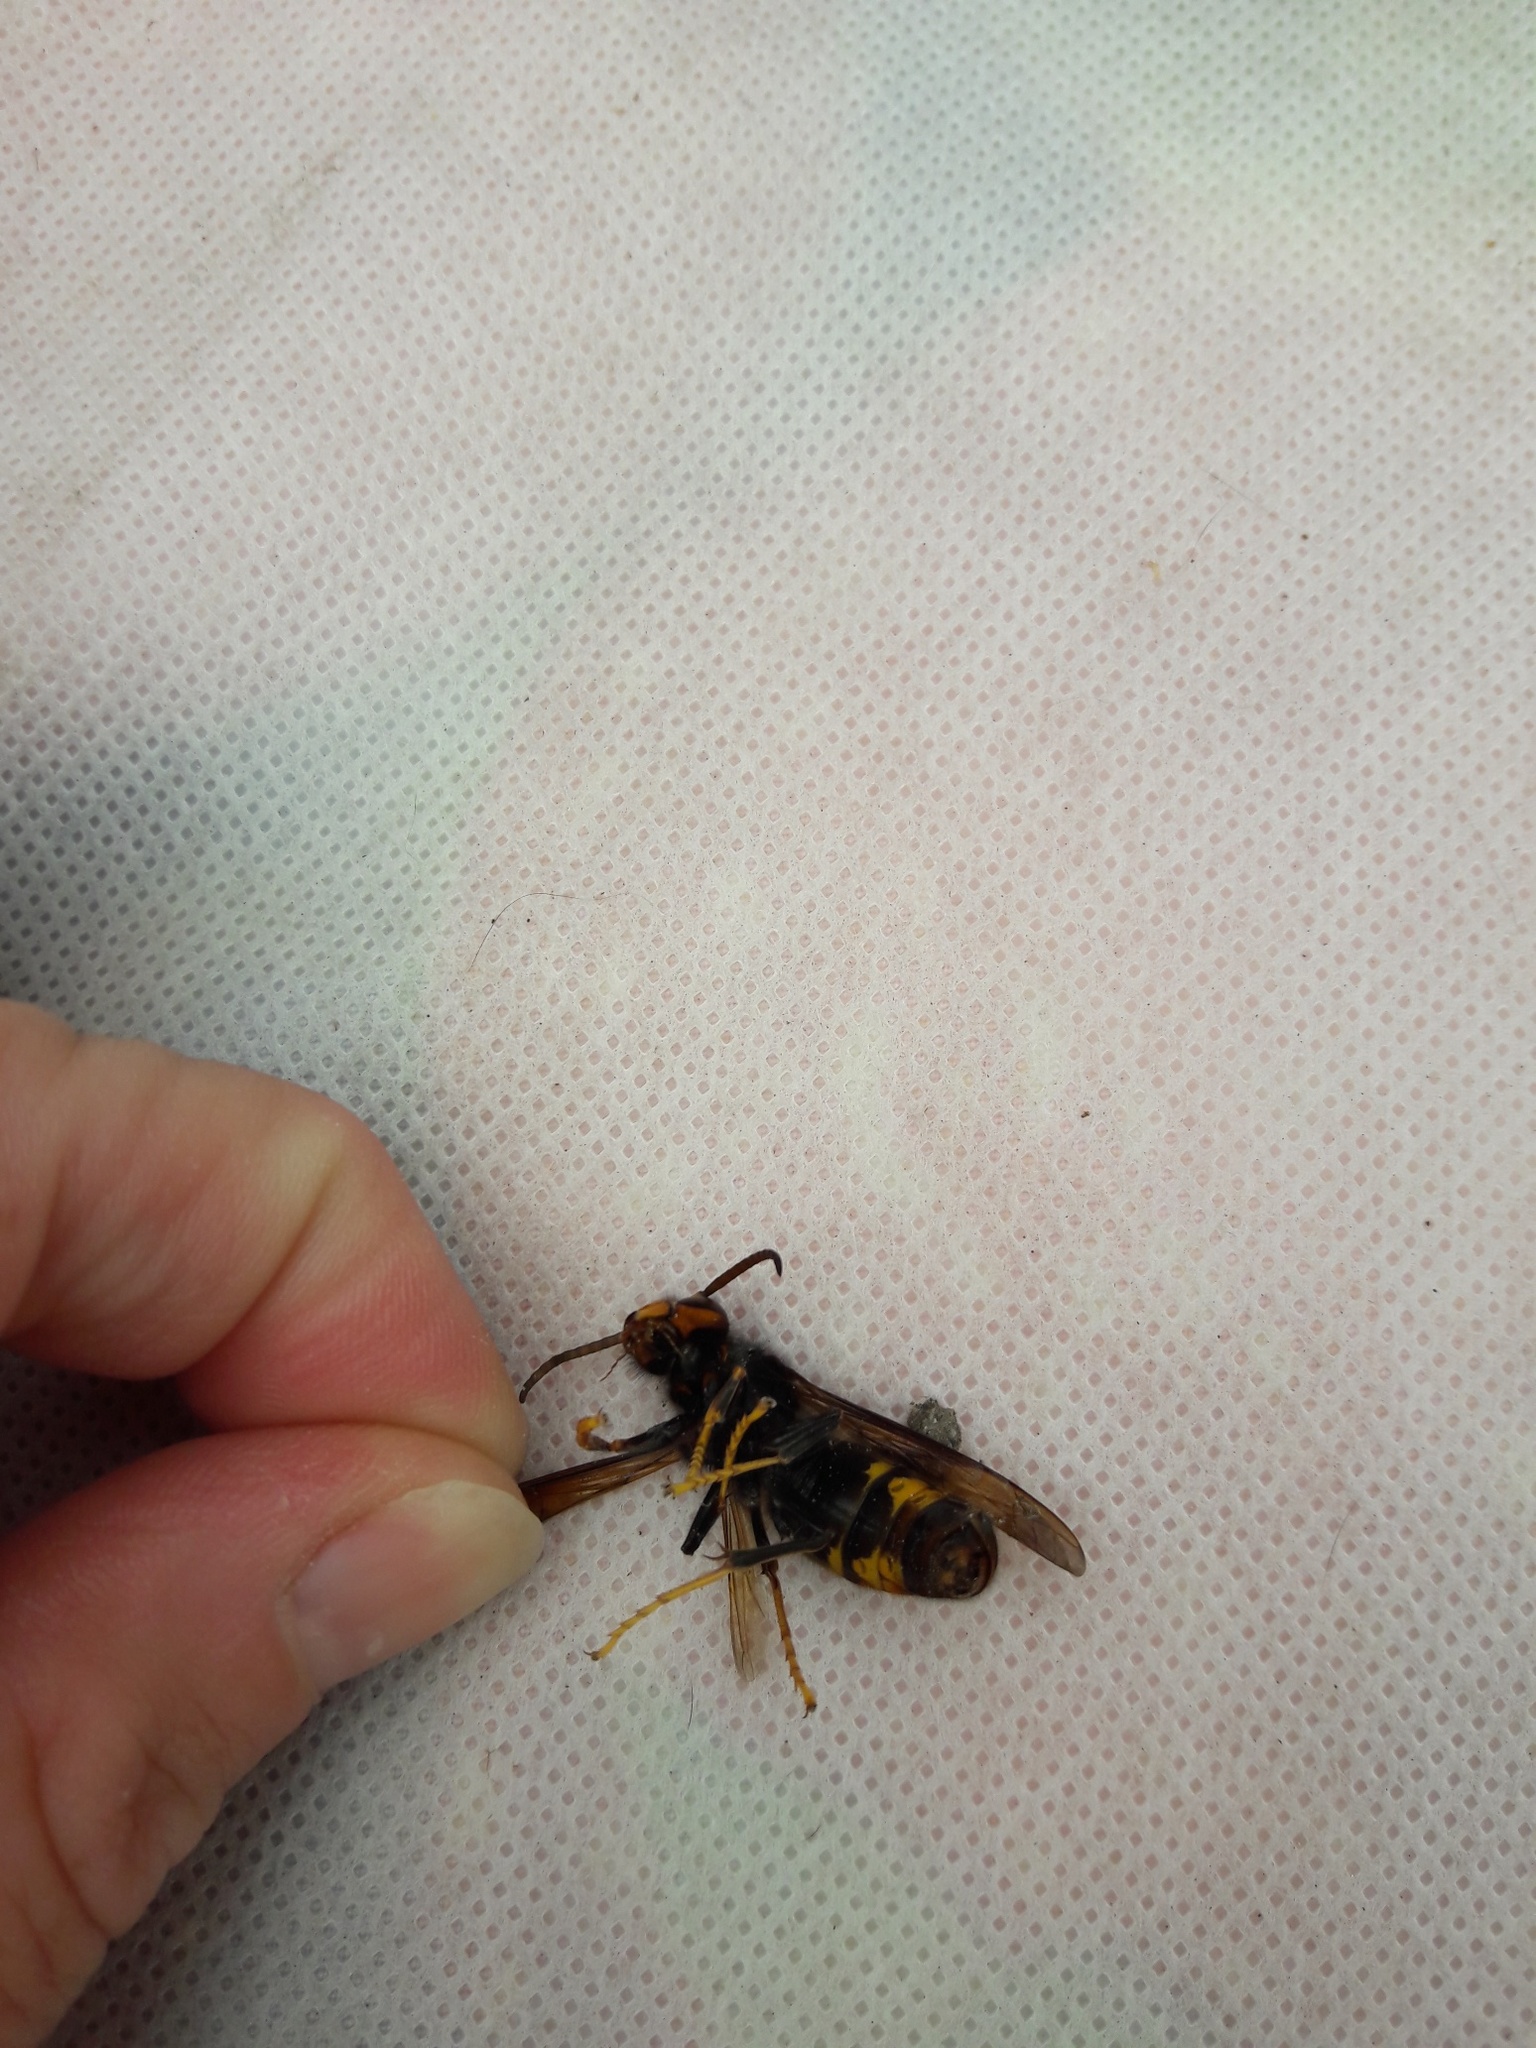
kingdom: Animalia
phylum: Arthropoda
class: Insecta
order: Hymenoptera
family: Vespidae
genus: Vespa
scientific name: Vespa velutina
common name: Asian hornet
